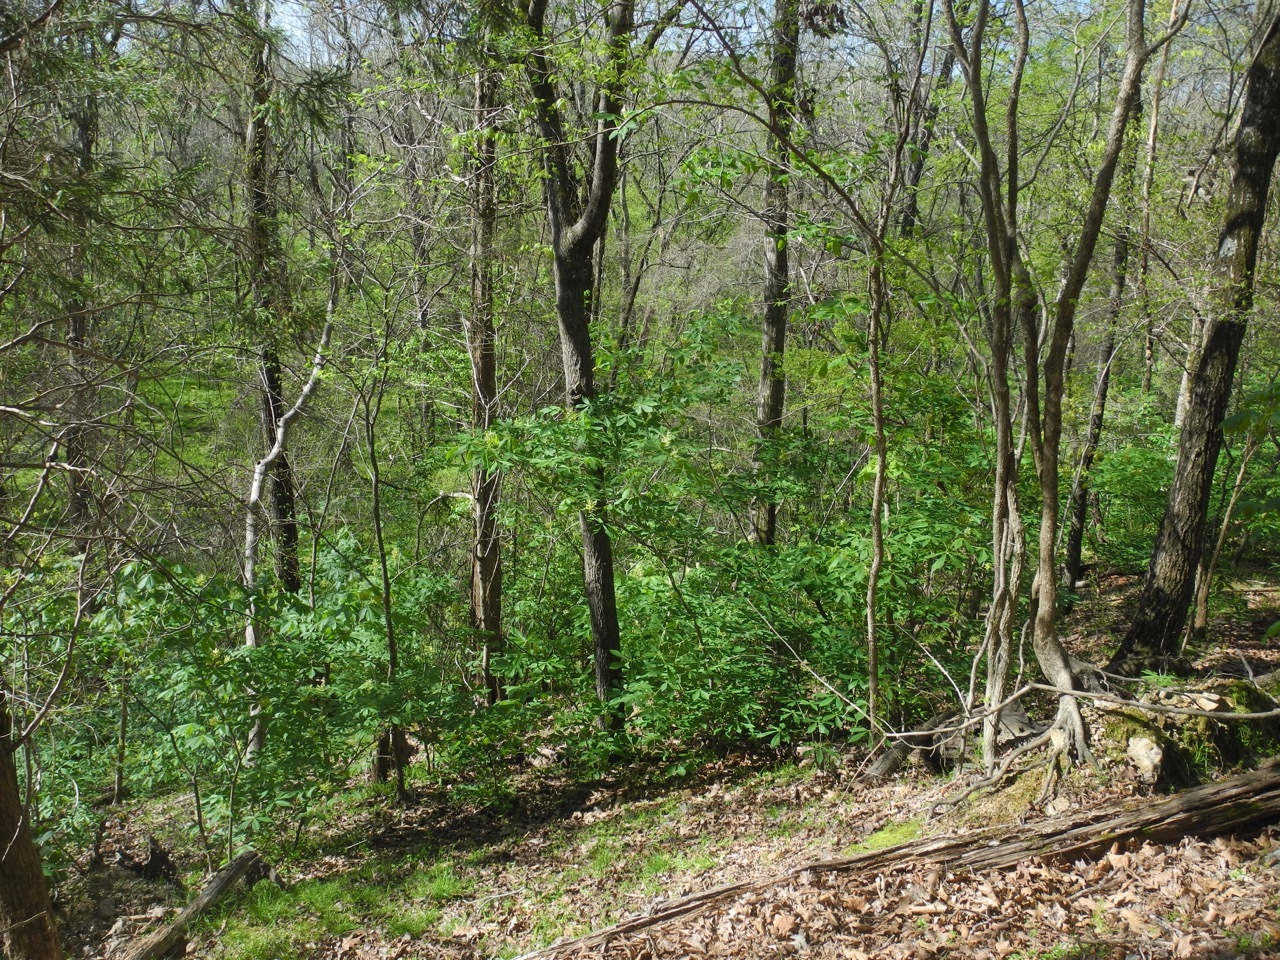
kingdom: Plantae
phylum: Tracheophyta
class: Magnoliopsida
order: Sapindales
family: Sapindaceae
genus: Aesculus
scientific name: Aesculus sylvatica
